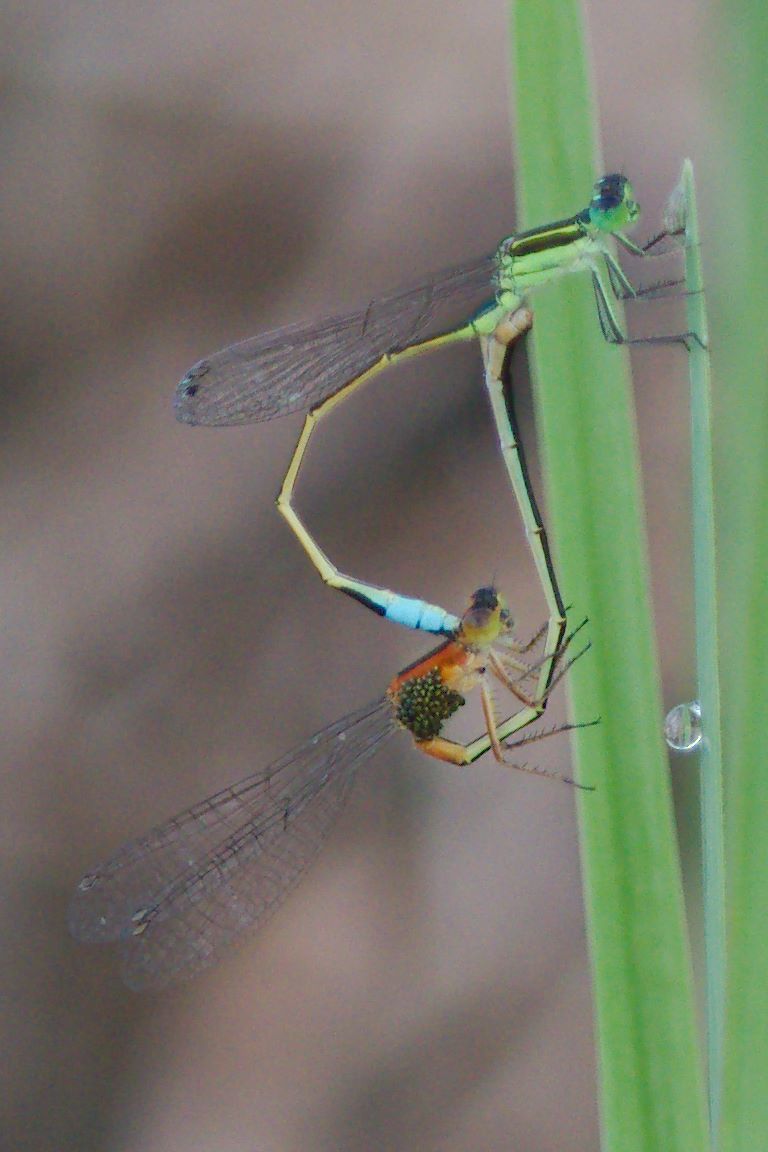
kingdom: Animalia
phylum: Arthropoda
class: Insecta
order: Odonata
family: Coenagrionidae
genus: Ischnura
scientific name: Ischnura ramburii
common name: Rambur's forktail
